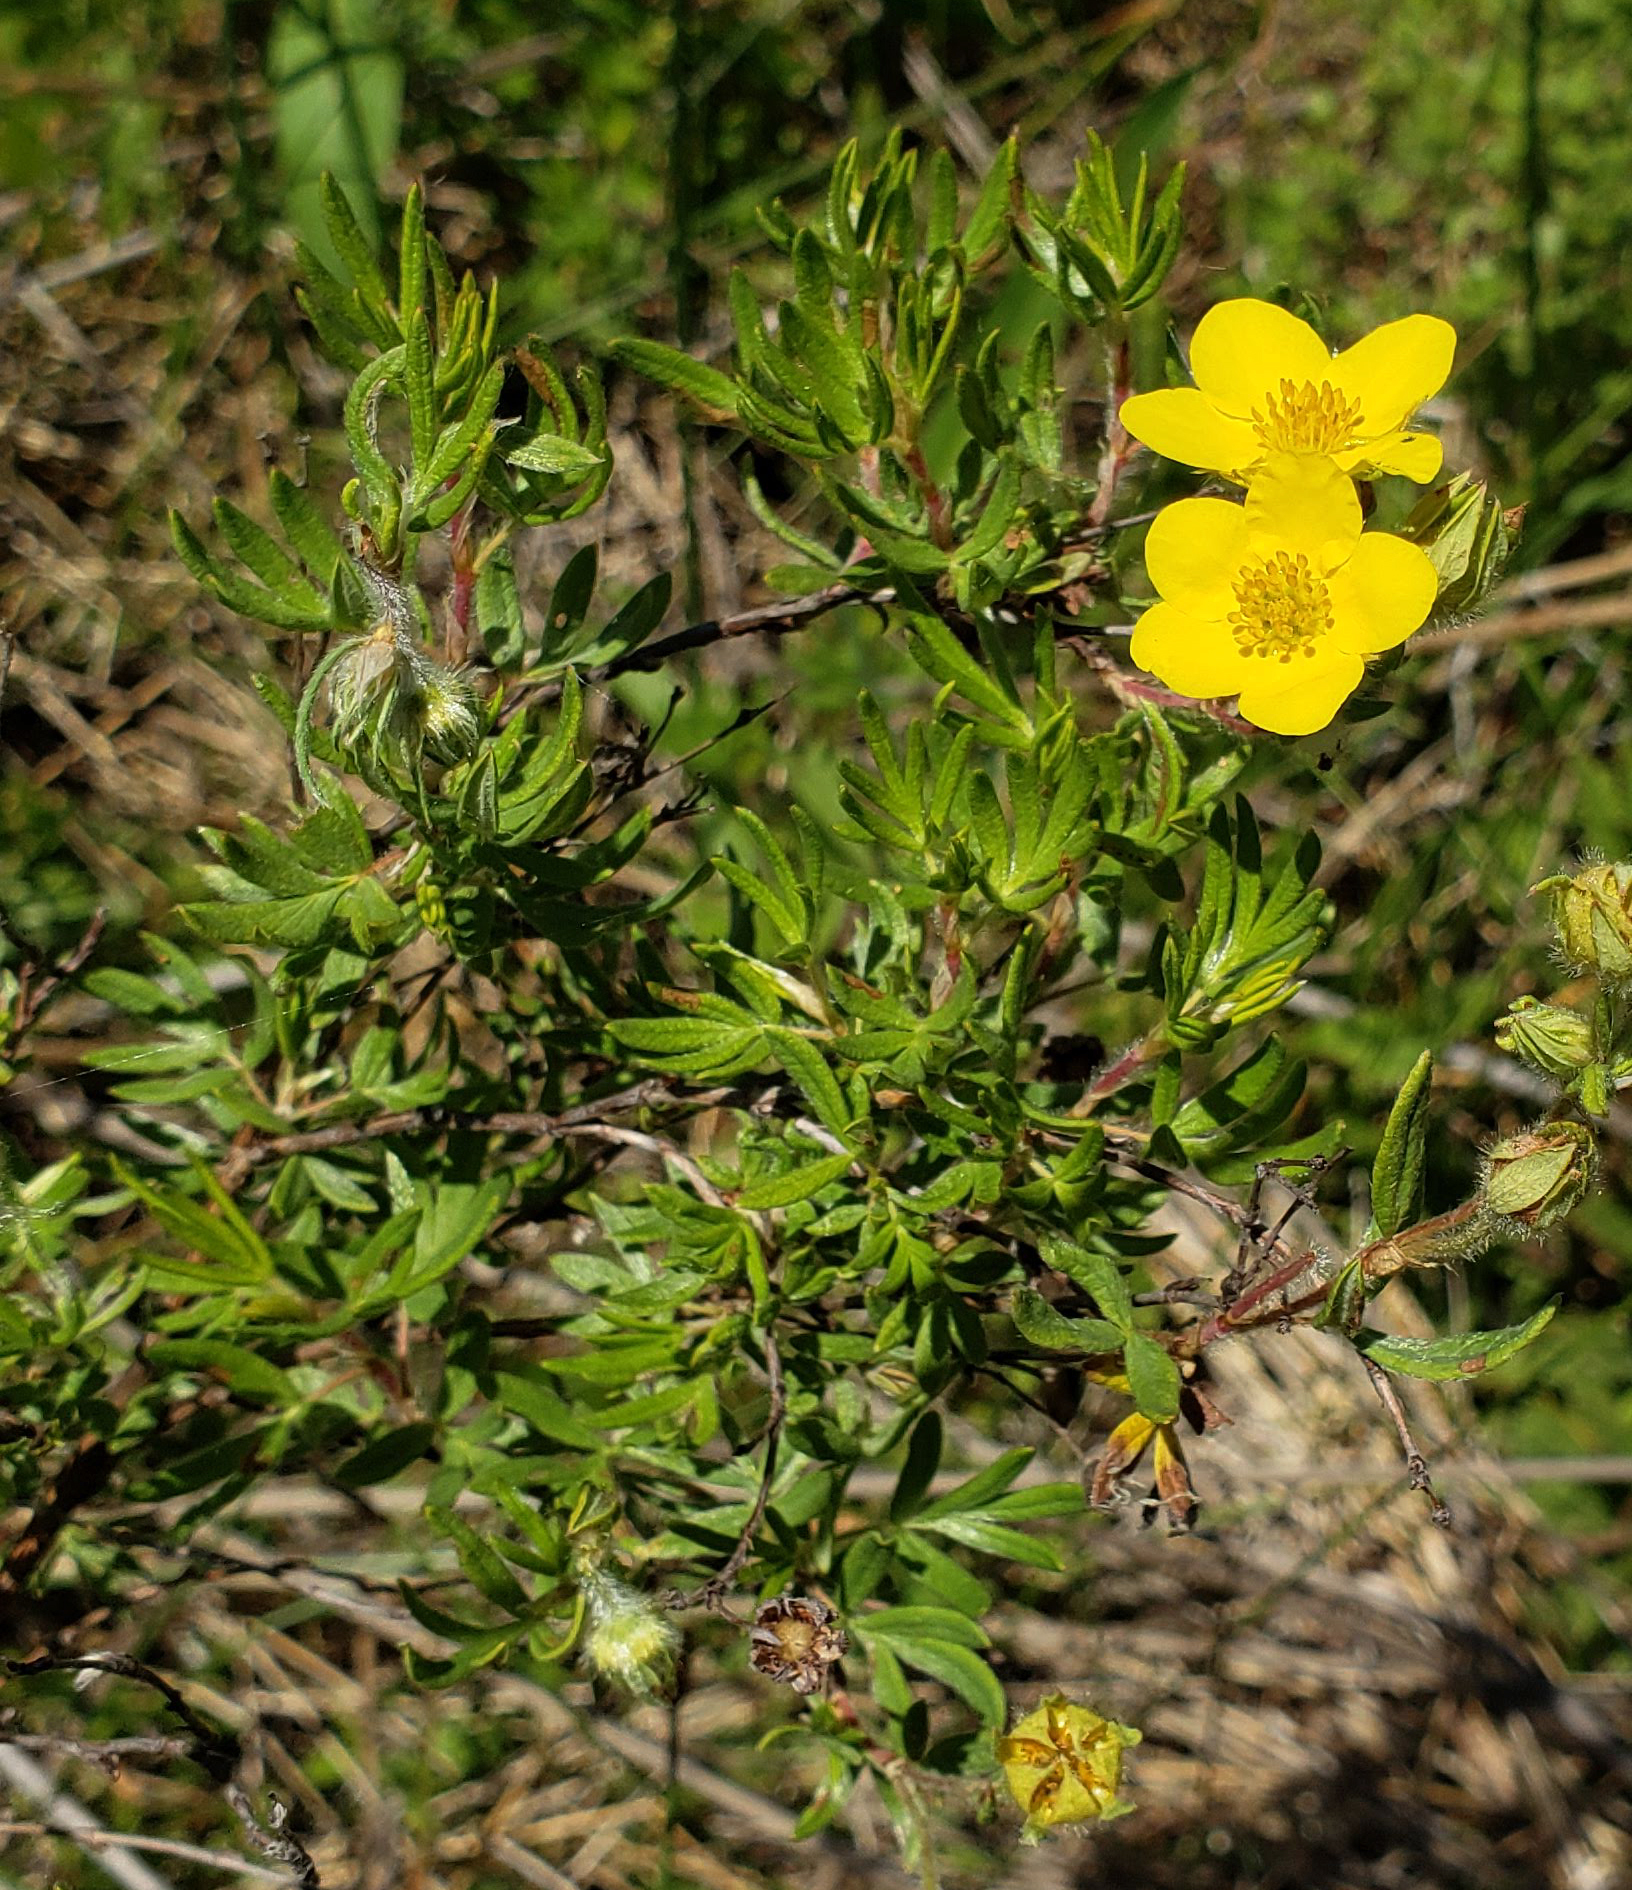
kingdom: Plantae
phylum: Tracheophyta
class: Magnoliopsida
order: Rosales
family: Rosaceae
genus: Dasiphora
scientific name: Dasiphora fruticosa
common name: Shrubby cinquefoil
